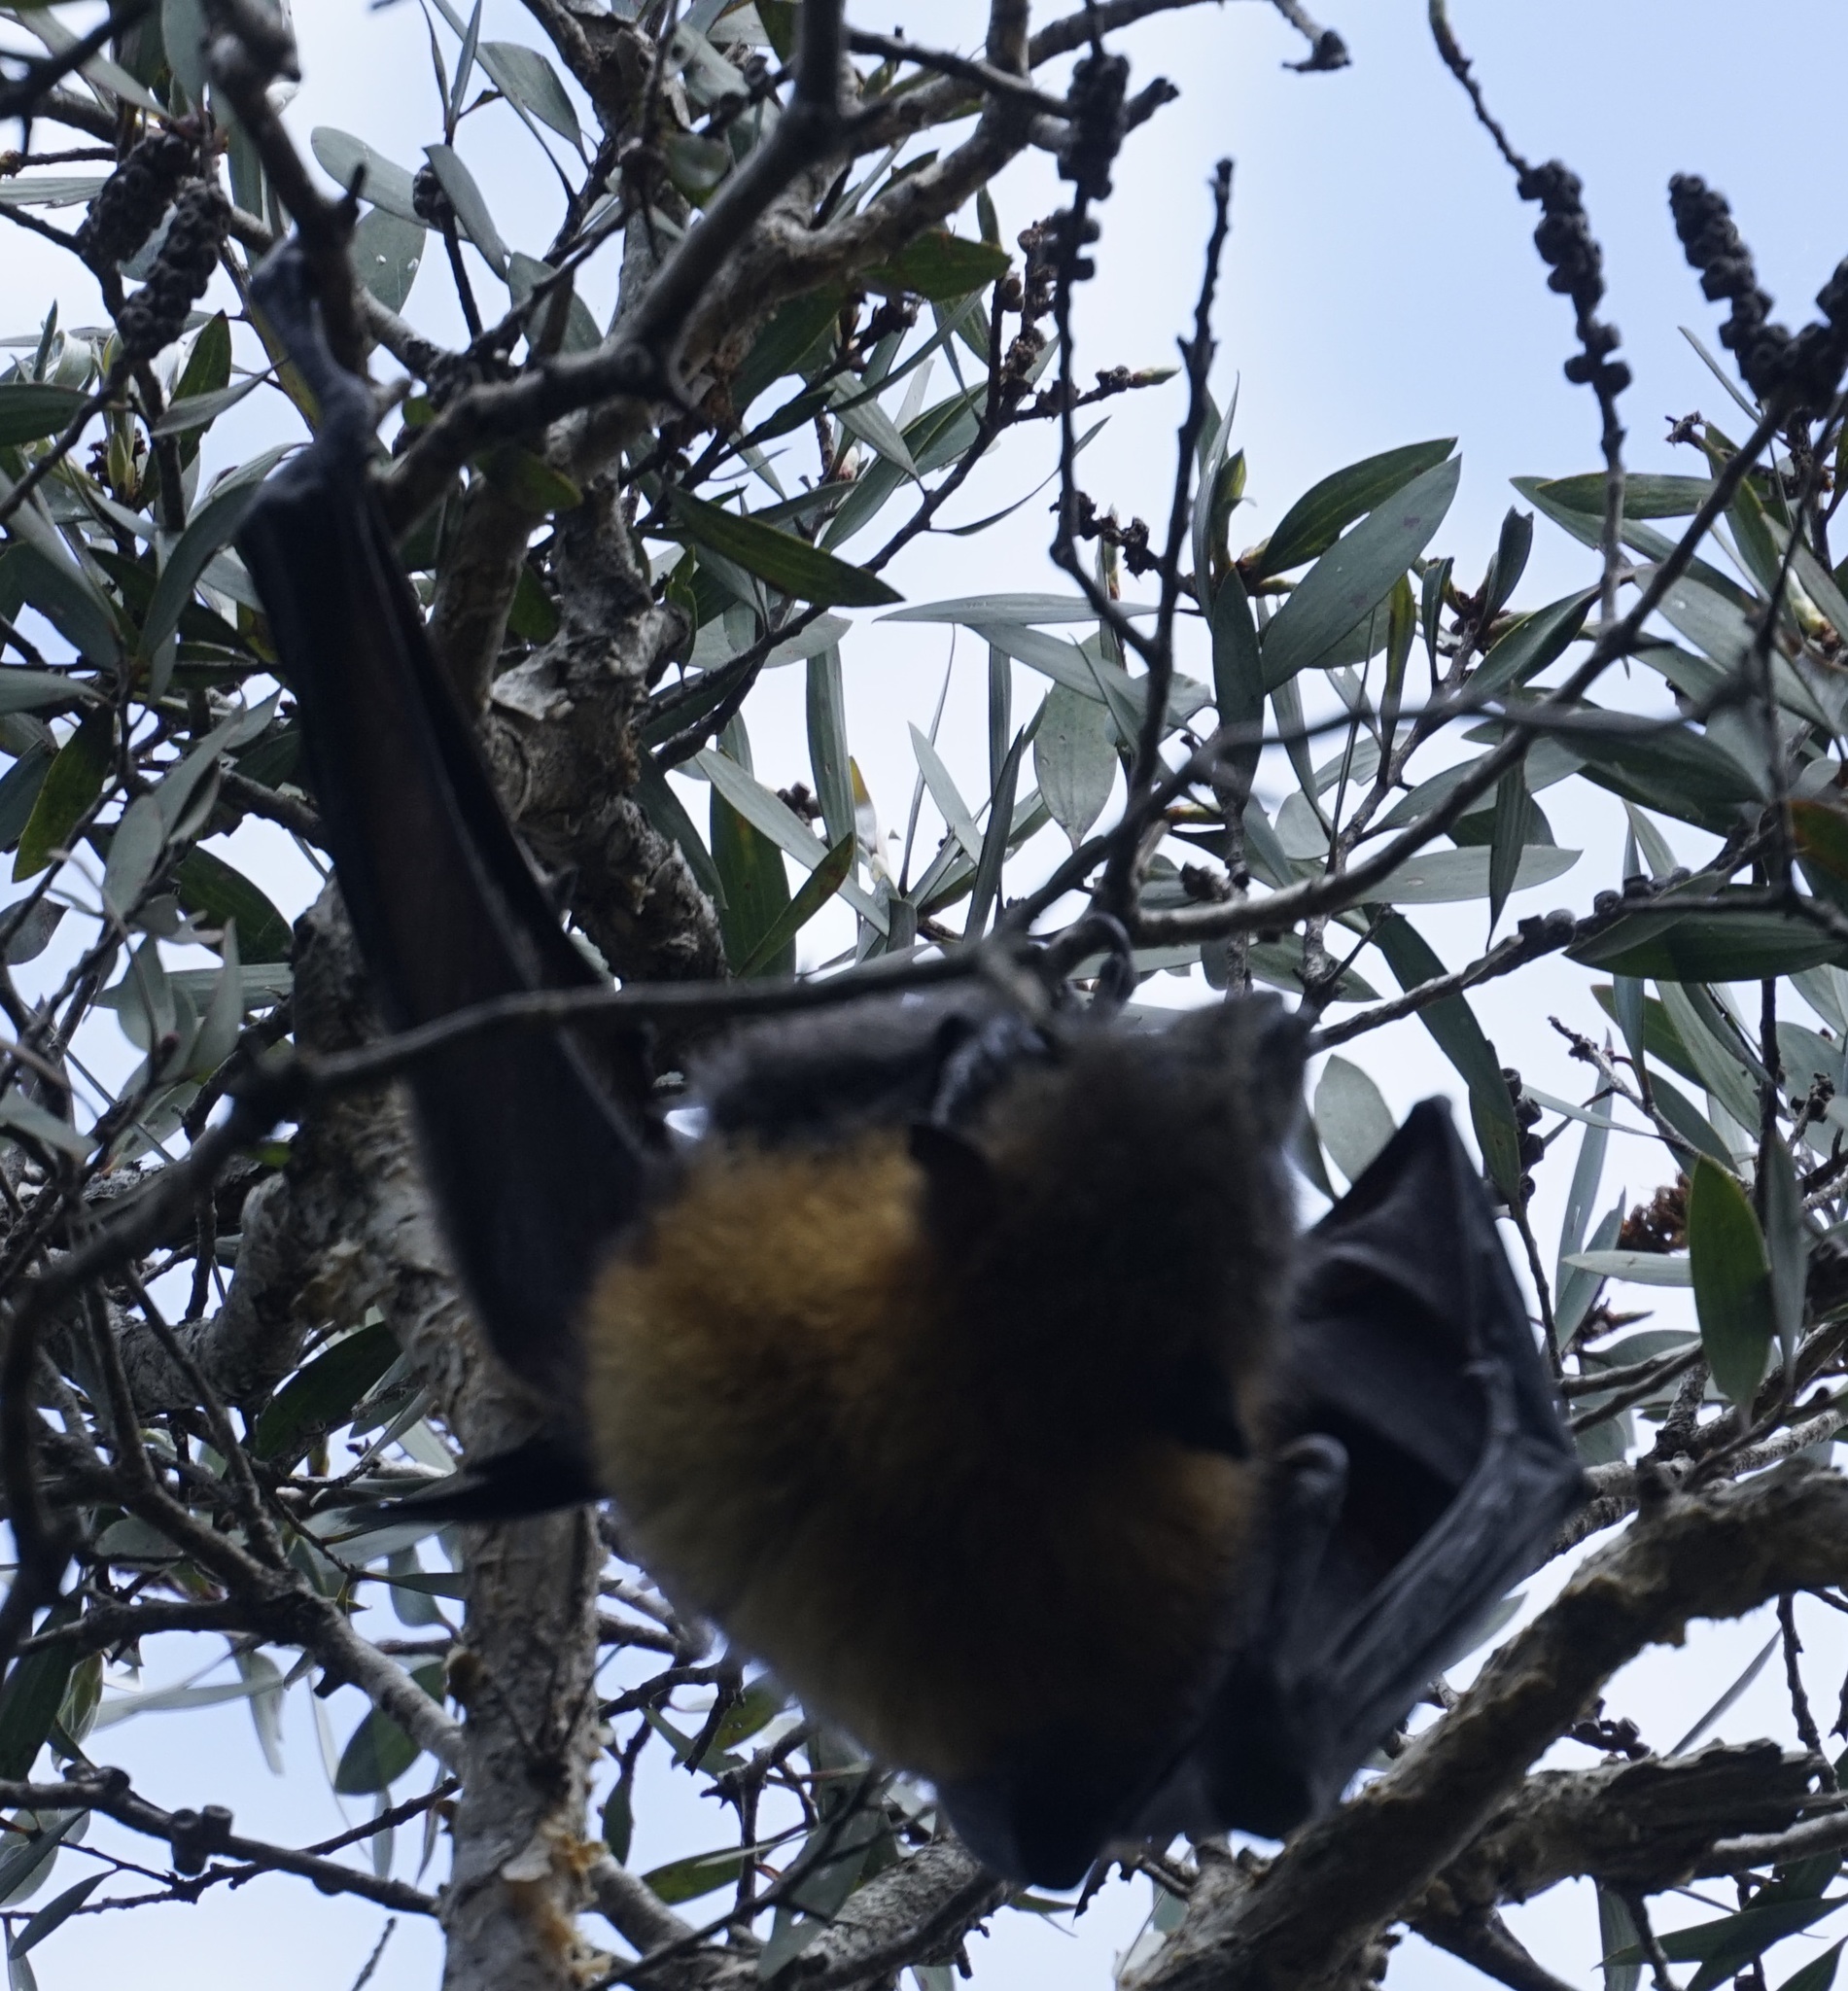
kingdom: Animalia
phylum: Chordata
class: Mammalia
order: Chiroptera
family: Pteropodidae
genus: Pteropus
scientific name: Pteropus poliocephalus
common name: Gray-headed flying fox
